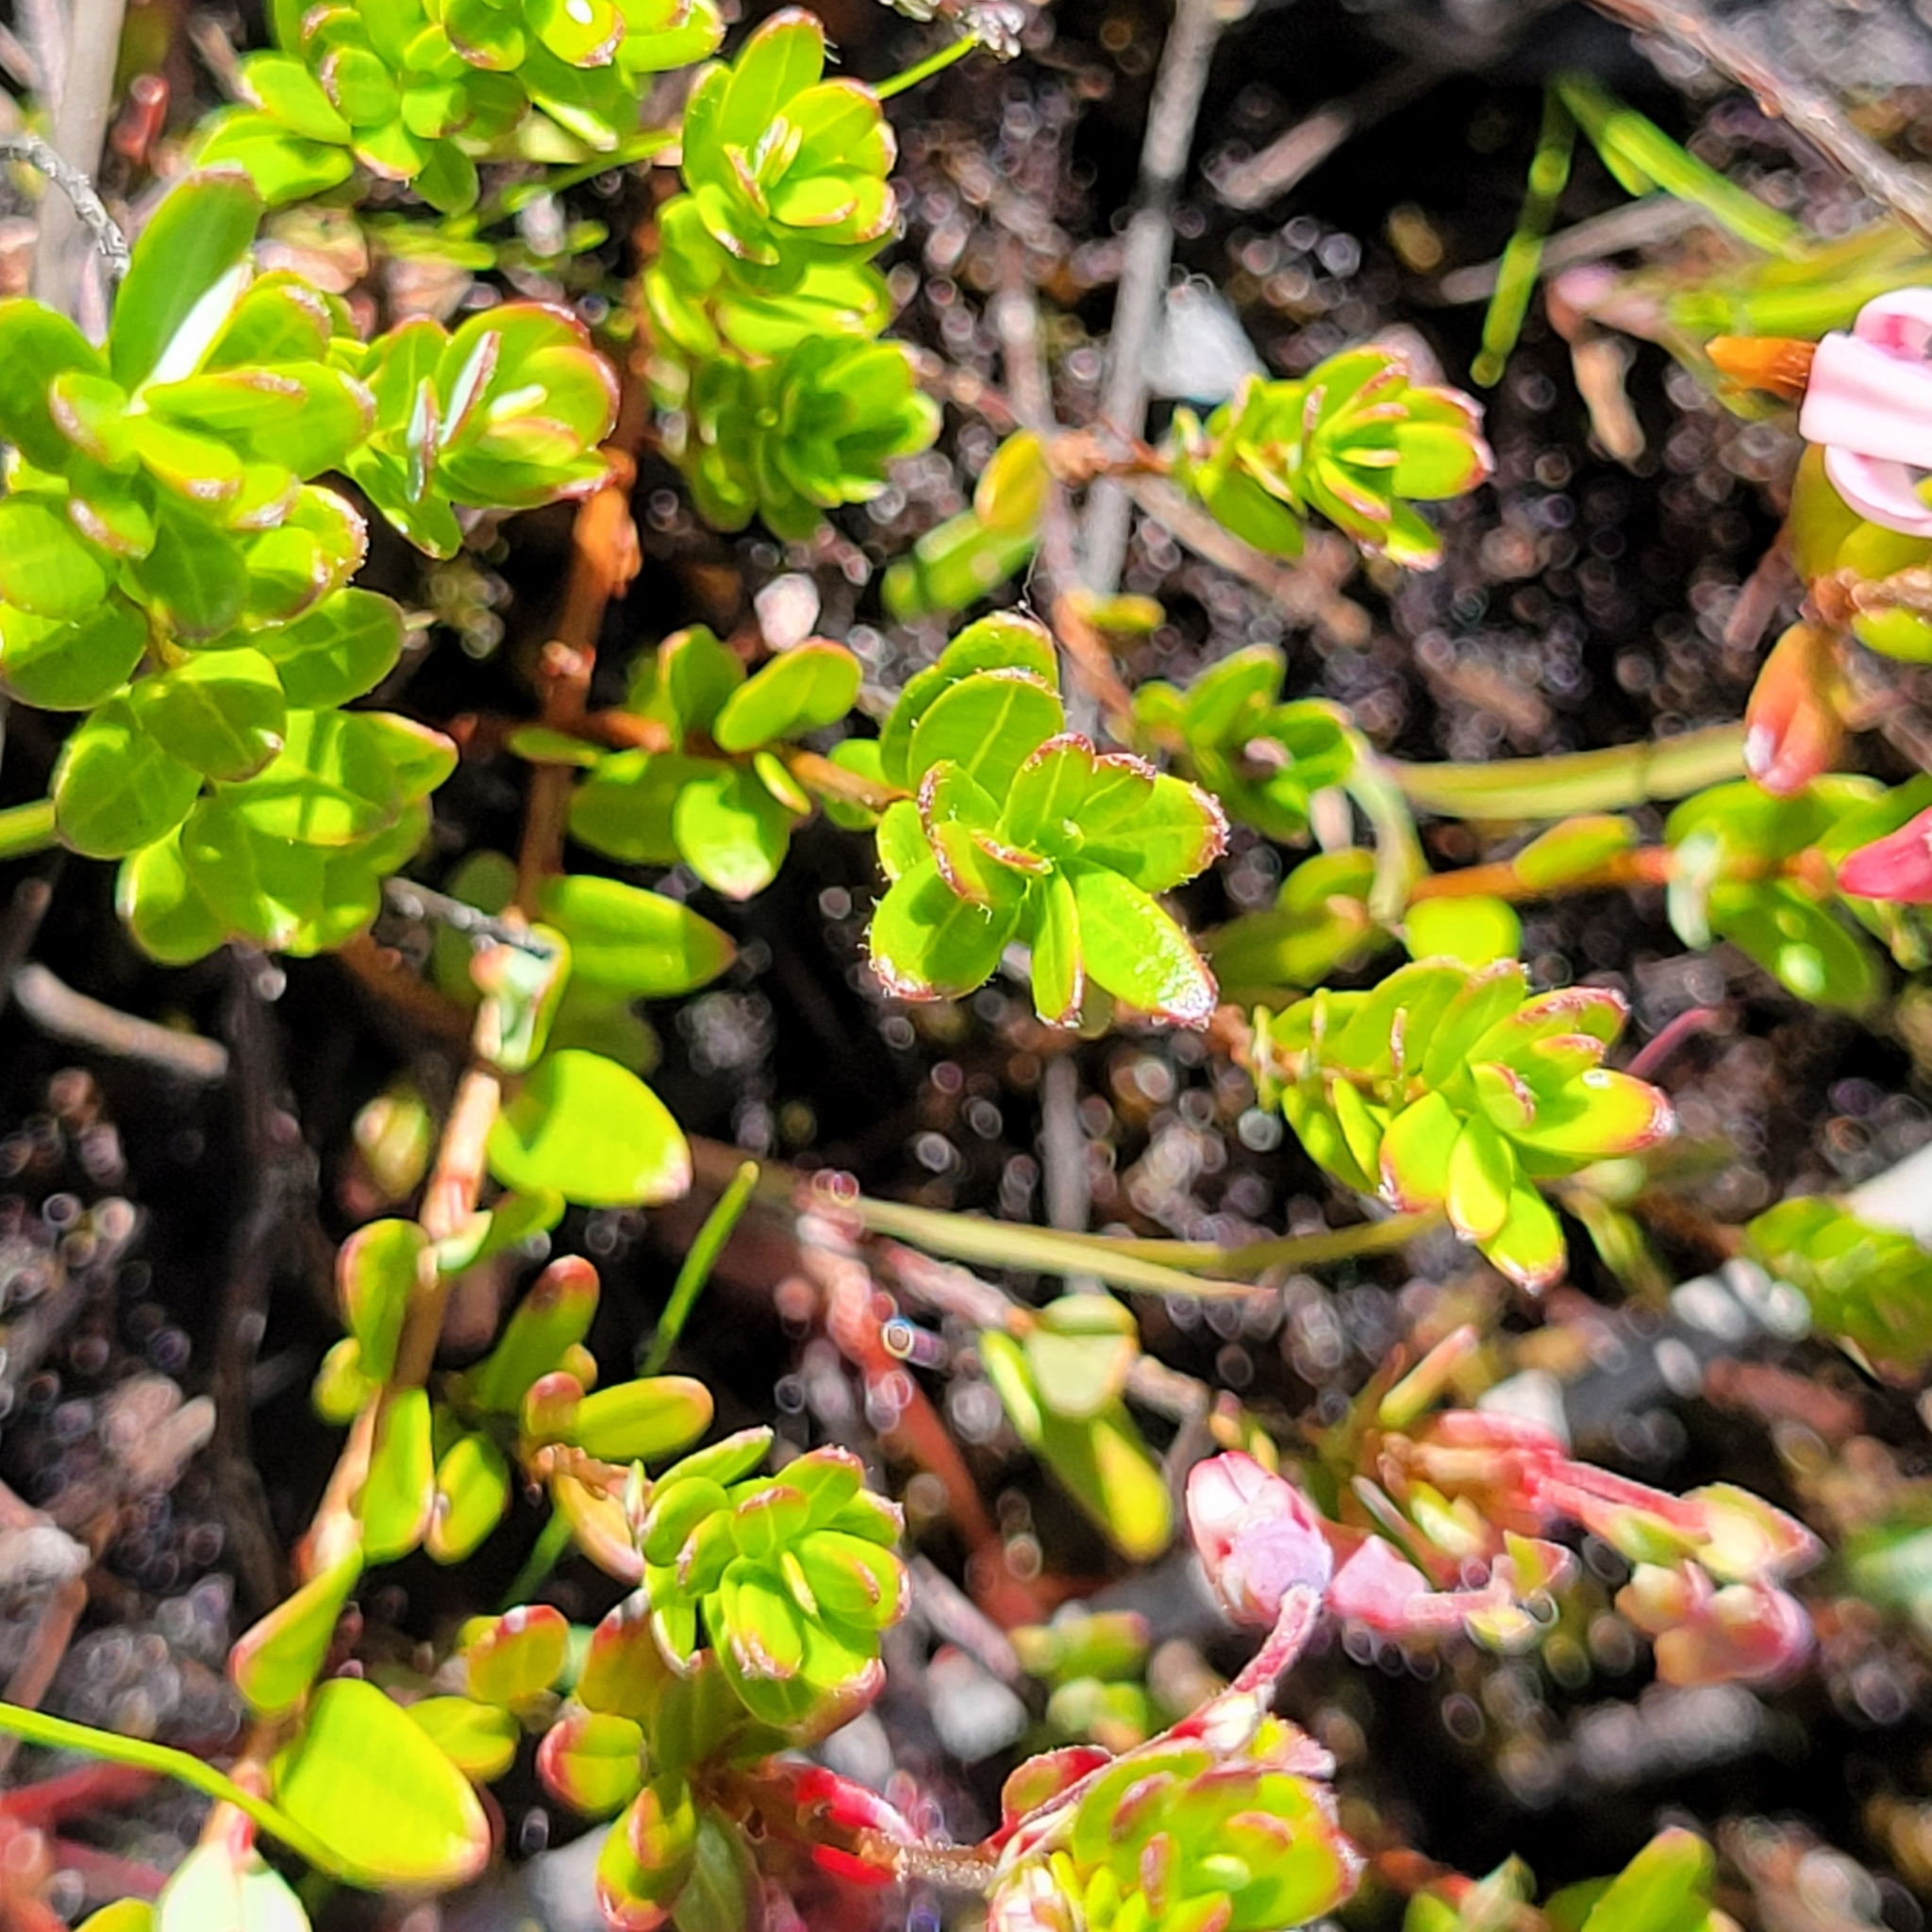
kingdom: Plantae
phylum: Tracheophyta
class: Magnoliopsida
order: Ericales
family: Ericaceae
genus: Vaccinium
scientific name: Vaccinium macrocarpon
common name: American cranberry
